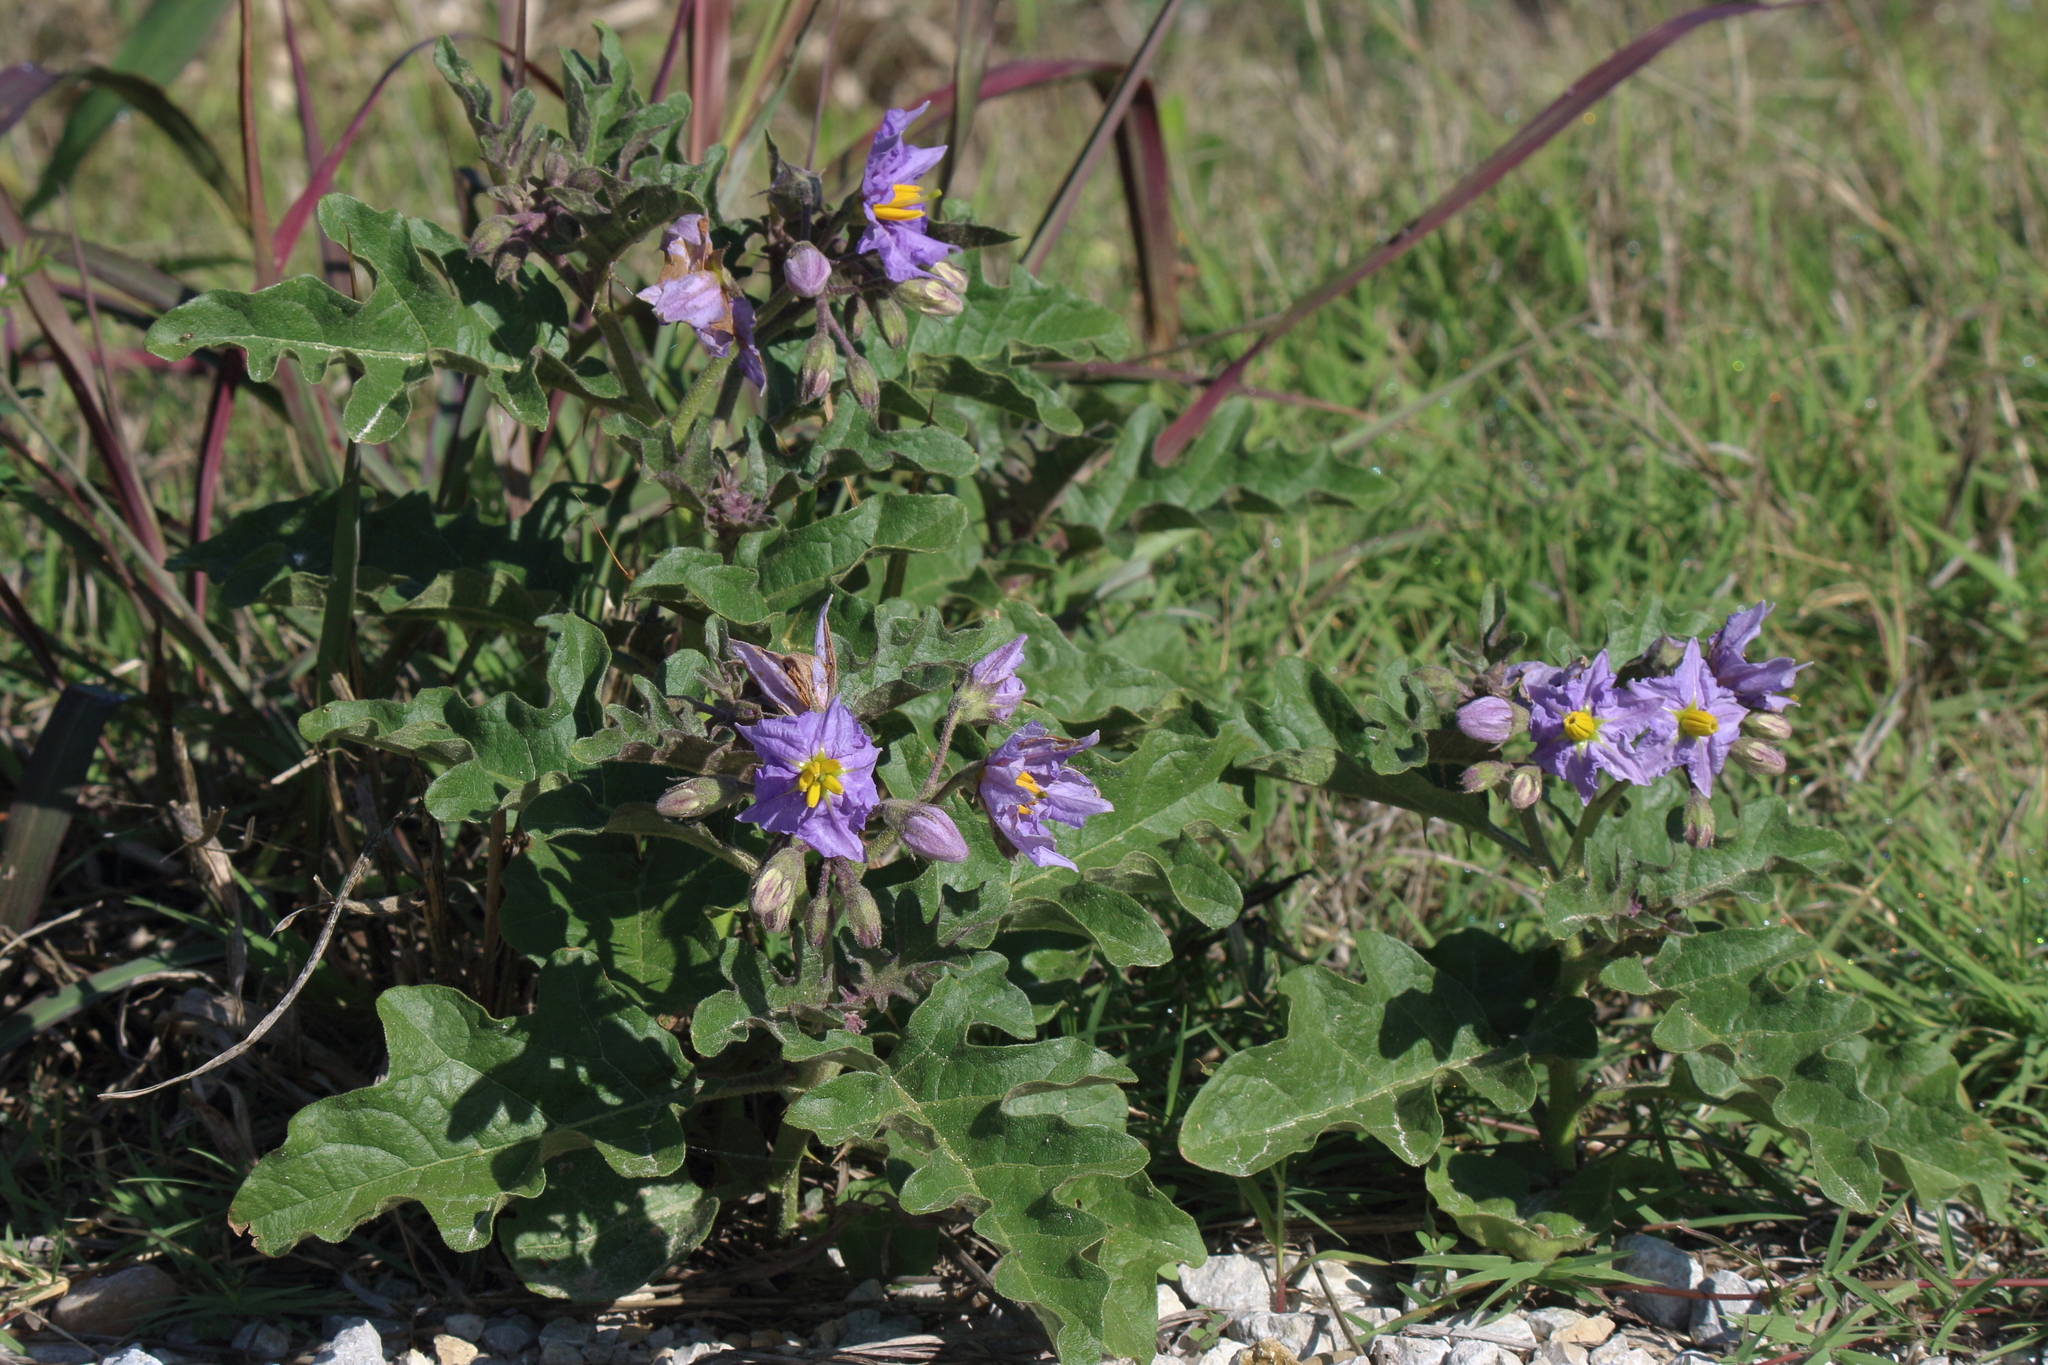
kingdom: Plantae
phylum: Tracheophyta
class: Magnoliopsida
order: Solanales
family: Solanaceae
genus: Solanum
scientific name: Solanum dimidiatum
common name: Carolina horse-nettle
